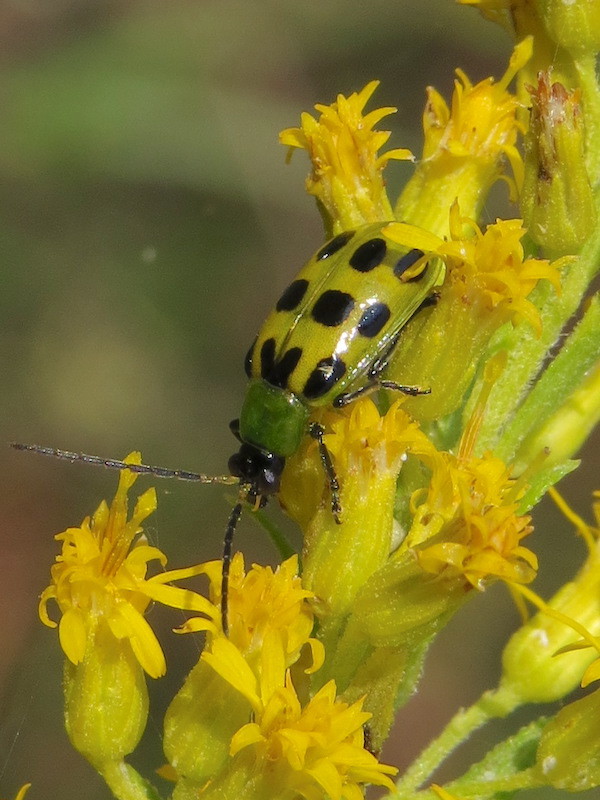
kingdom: Animalia
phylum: Arthropoda
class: Insecta
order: Coleoptera
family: Chrysomelidae
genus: Diabrotica
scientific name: Diabrotica undecimpunctata
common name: Spotted cucumber beetle
